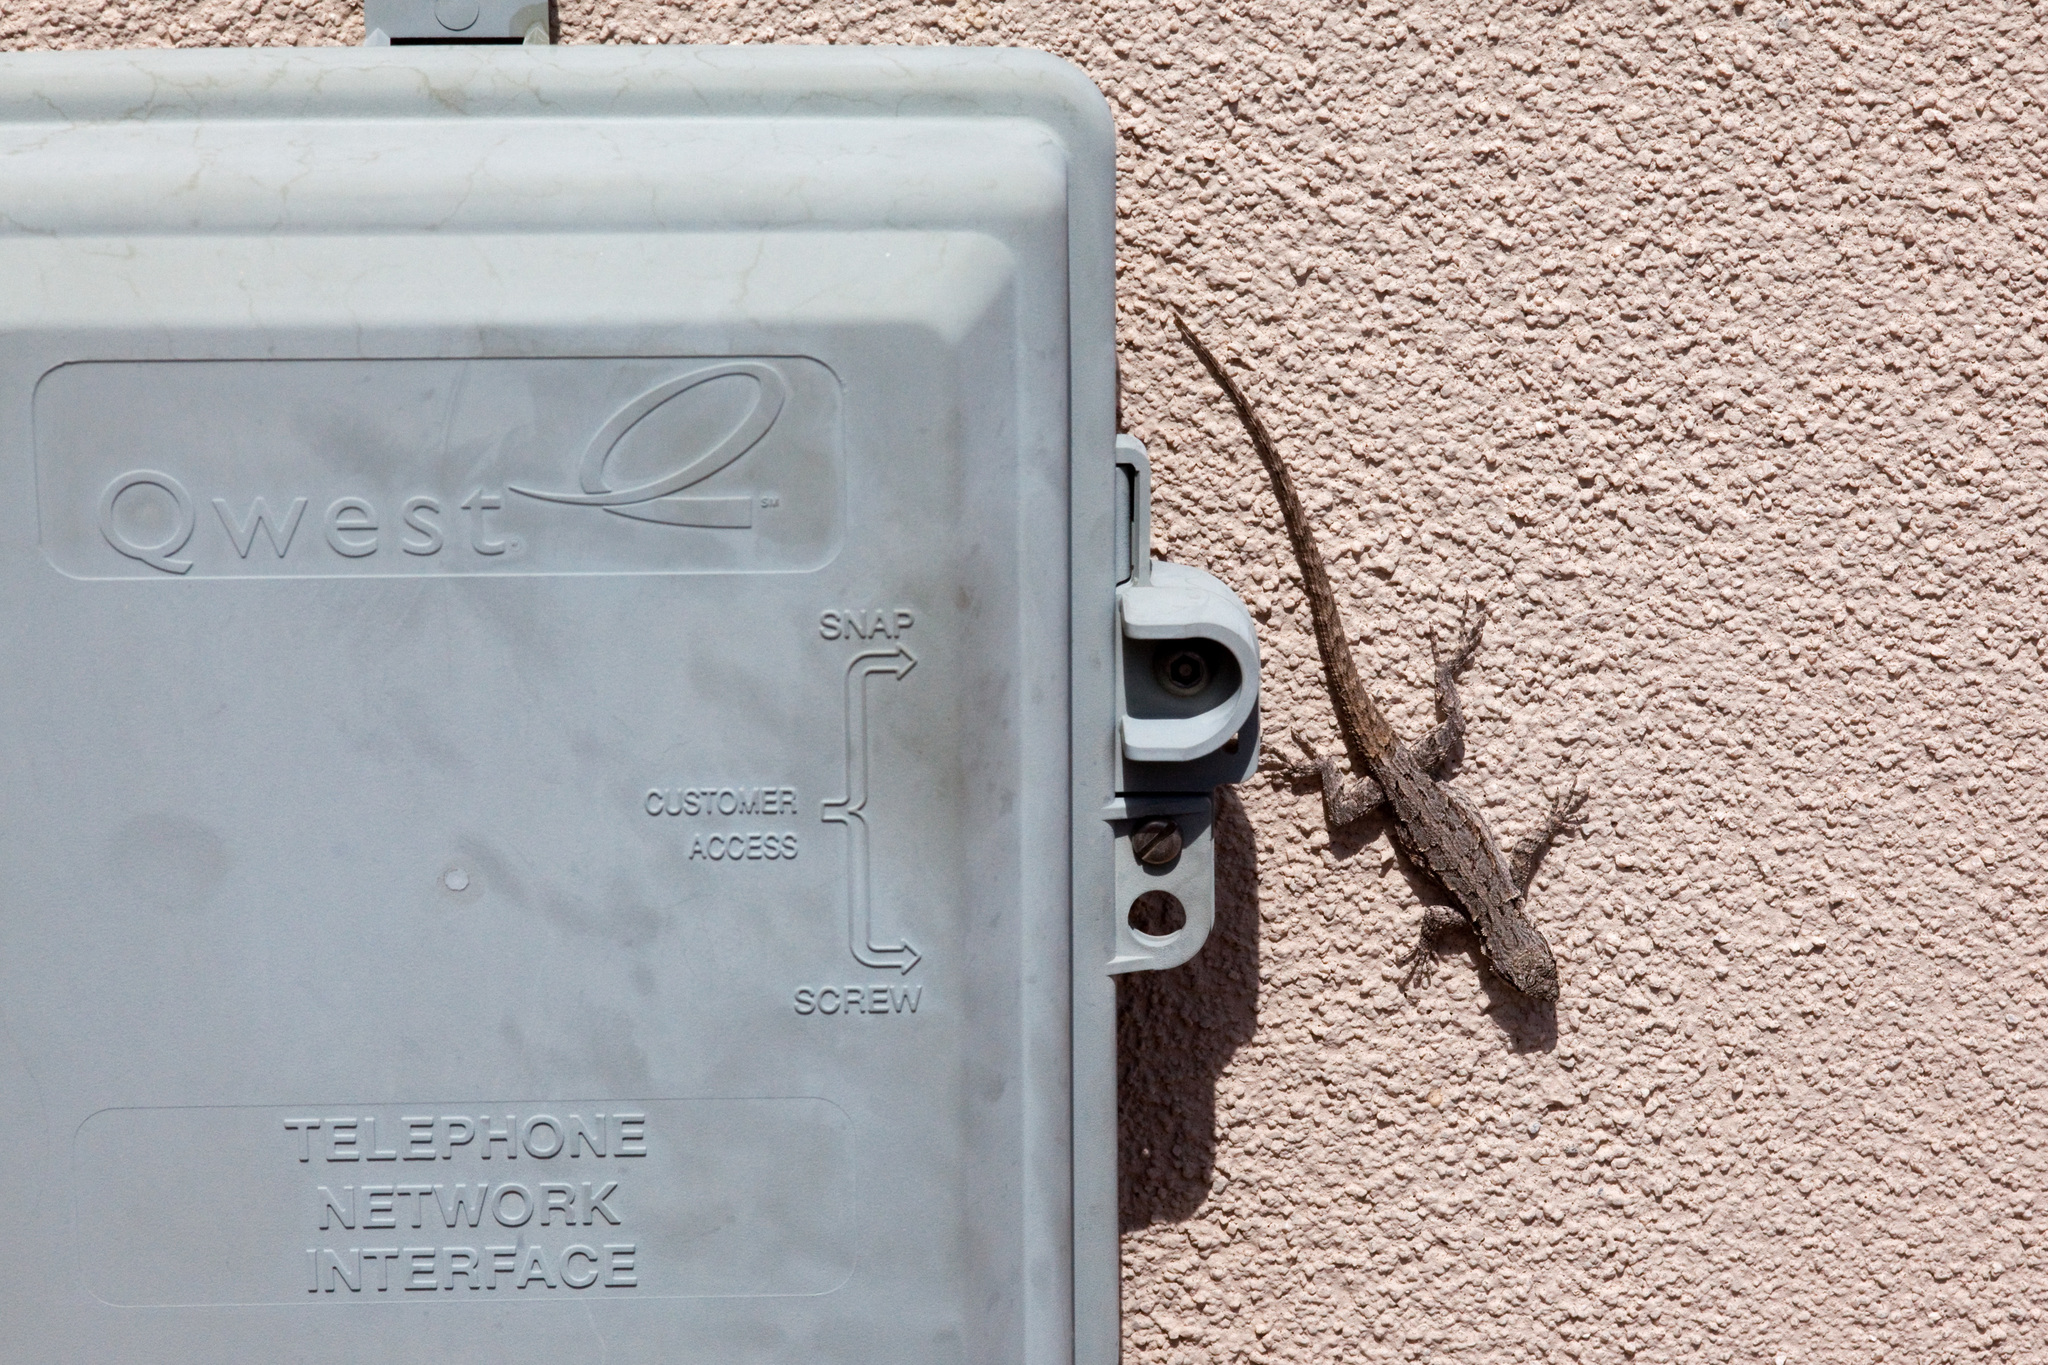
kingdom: Animalia
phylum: Chordata
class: Squamata
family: Phrynosomatidae
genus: Urosaurus
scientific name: Urosaurus ornatus
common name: Ornate tree lizard
